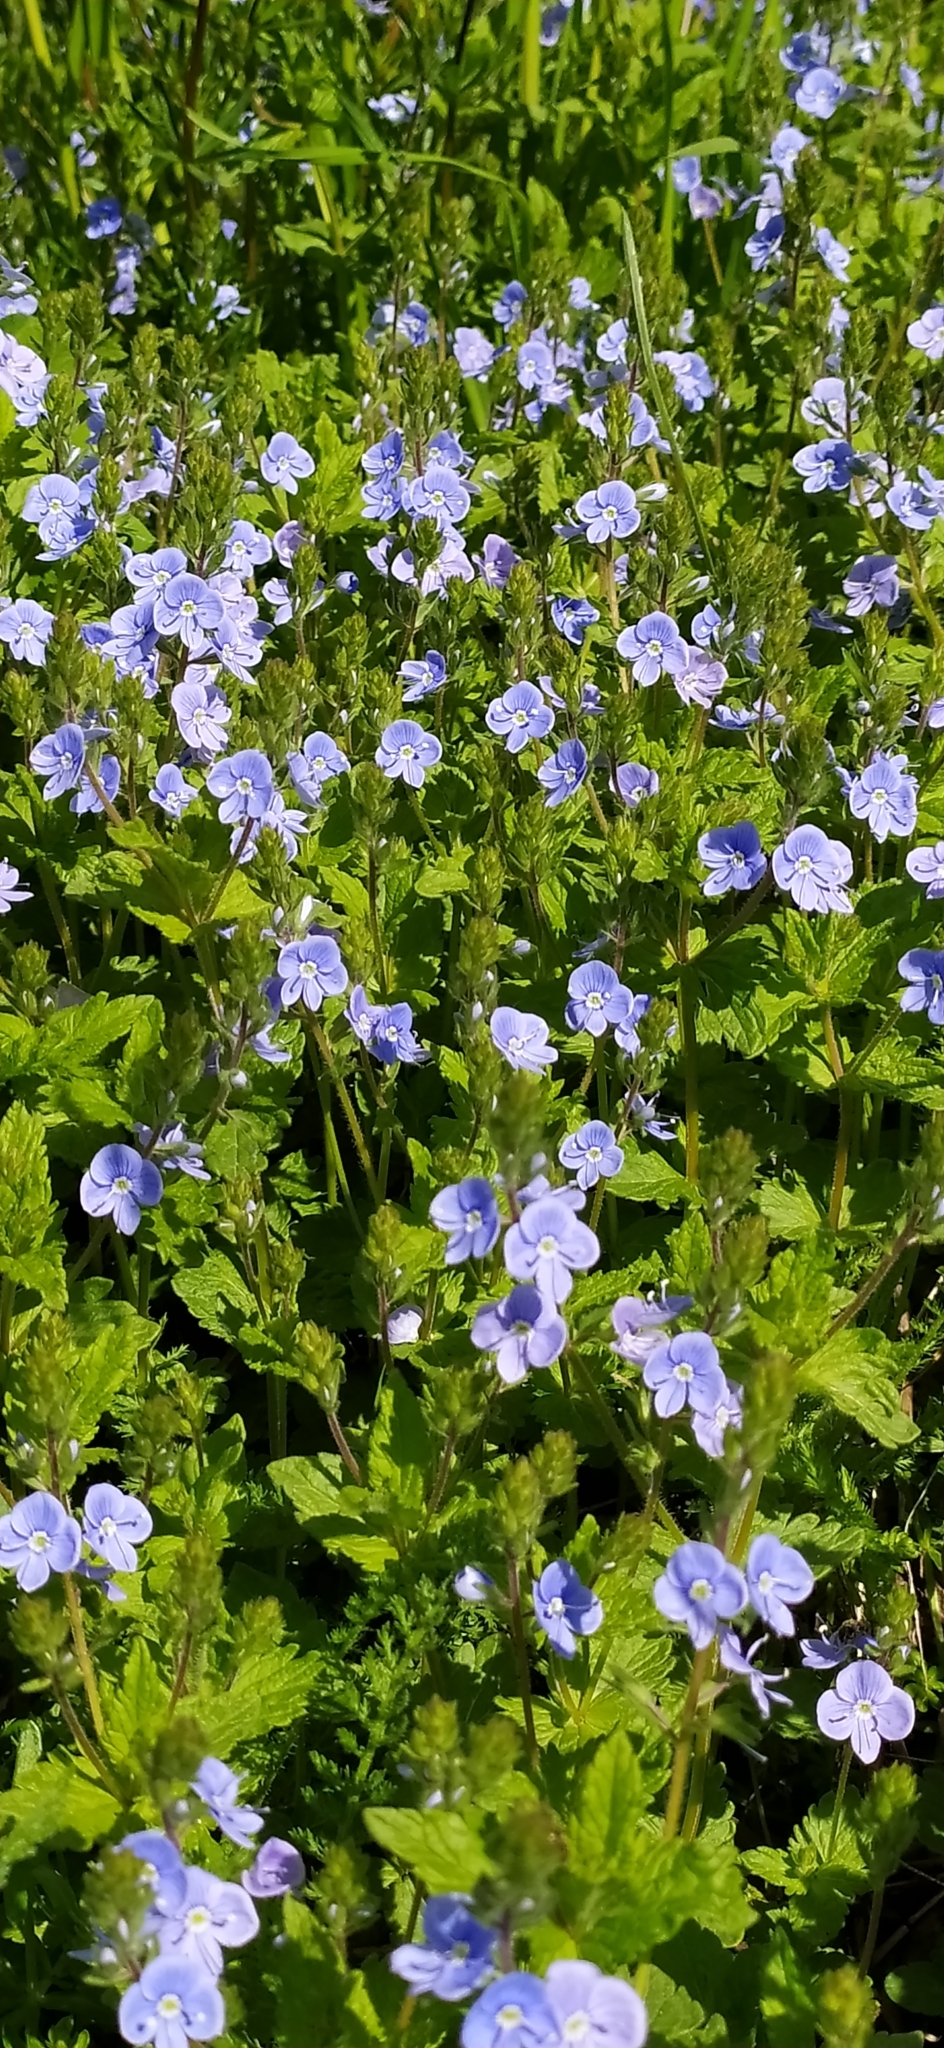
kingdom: Plantae
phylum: Tracheophyta
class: Magnoliopsida
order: Lamiales
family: Plantaginaceae
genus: Veronica
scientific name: Veronica chamaedrys
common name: Germander speedwell
